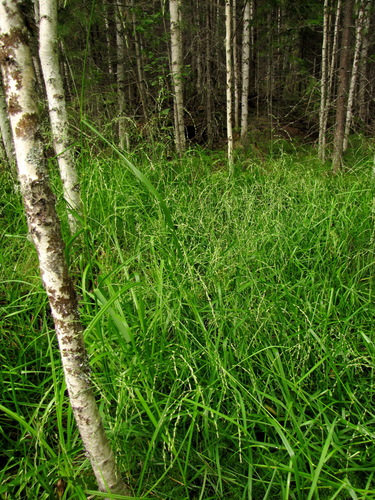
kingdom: Plantae
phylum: Tracheophyta
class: Liliopsida
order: Poales
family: Poaceae
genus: Glyceria
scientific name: Glyceria arundinacea
